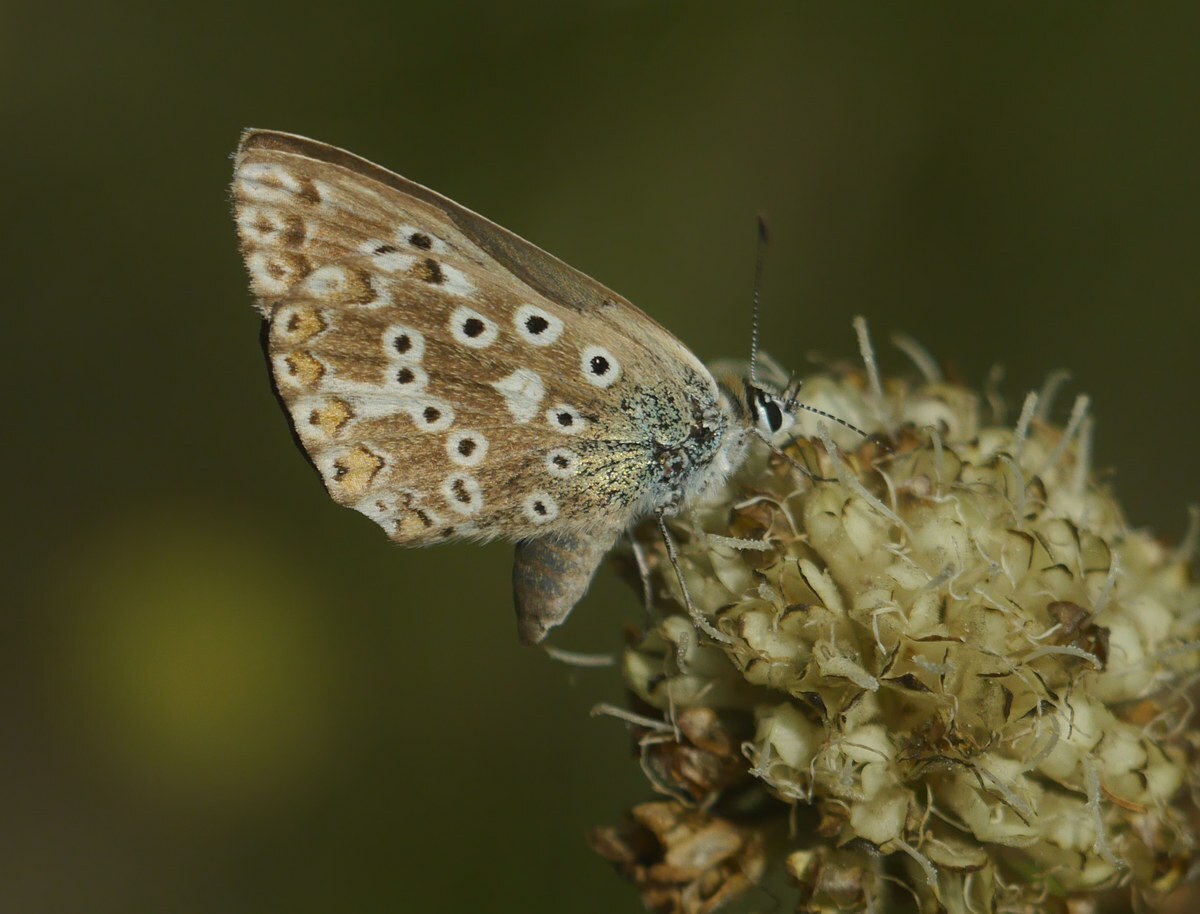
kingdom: Animalia
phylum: Arthropoda
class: Insecta
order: Lepidoptera
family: Lycaenidae
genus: Lysandra
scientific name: Lysandra coridon
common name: Chalkhill blue
